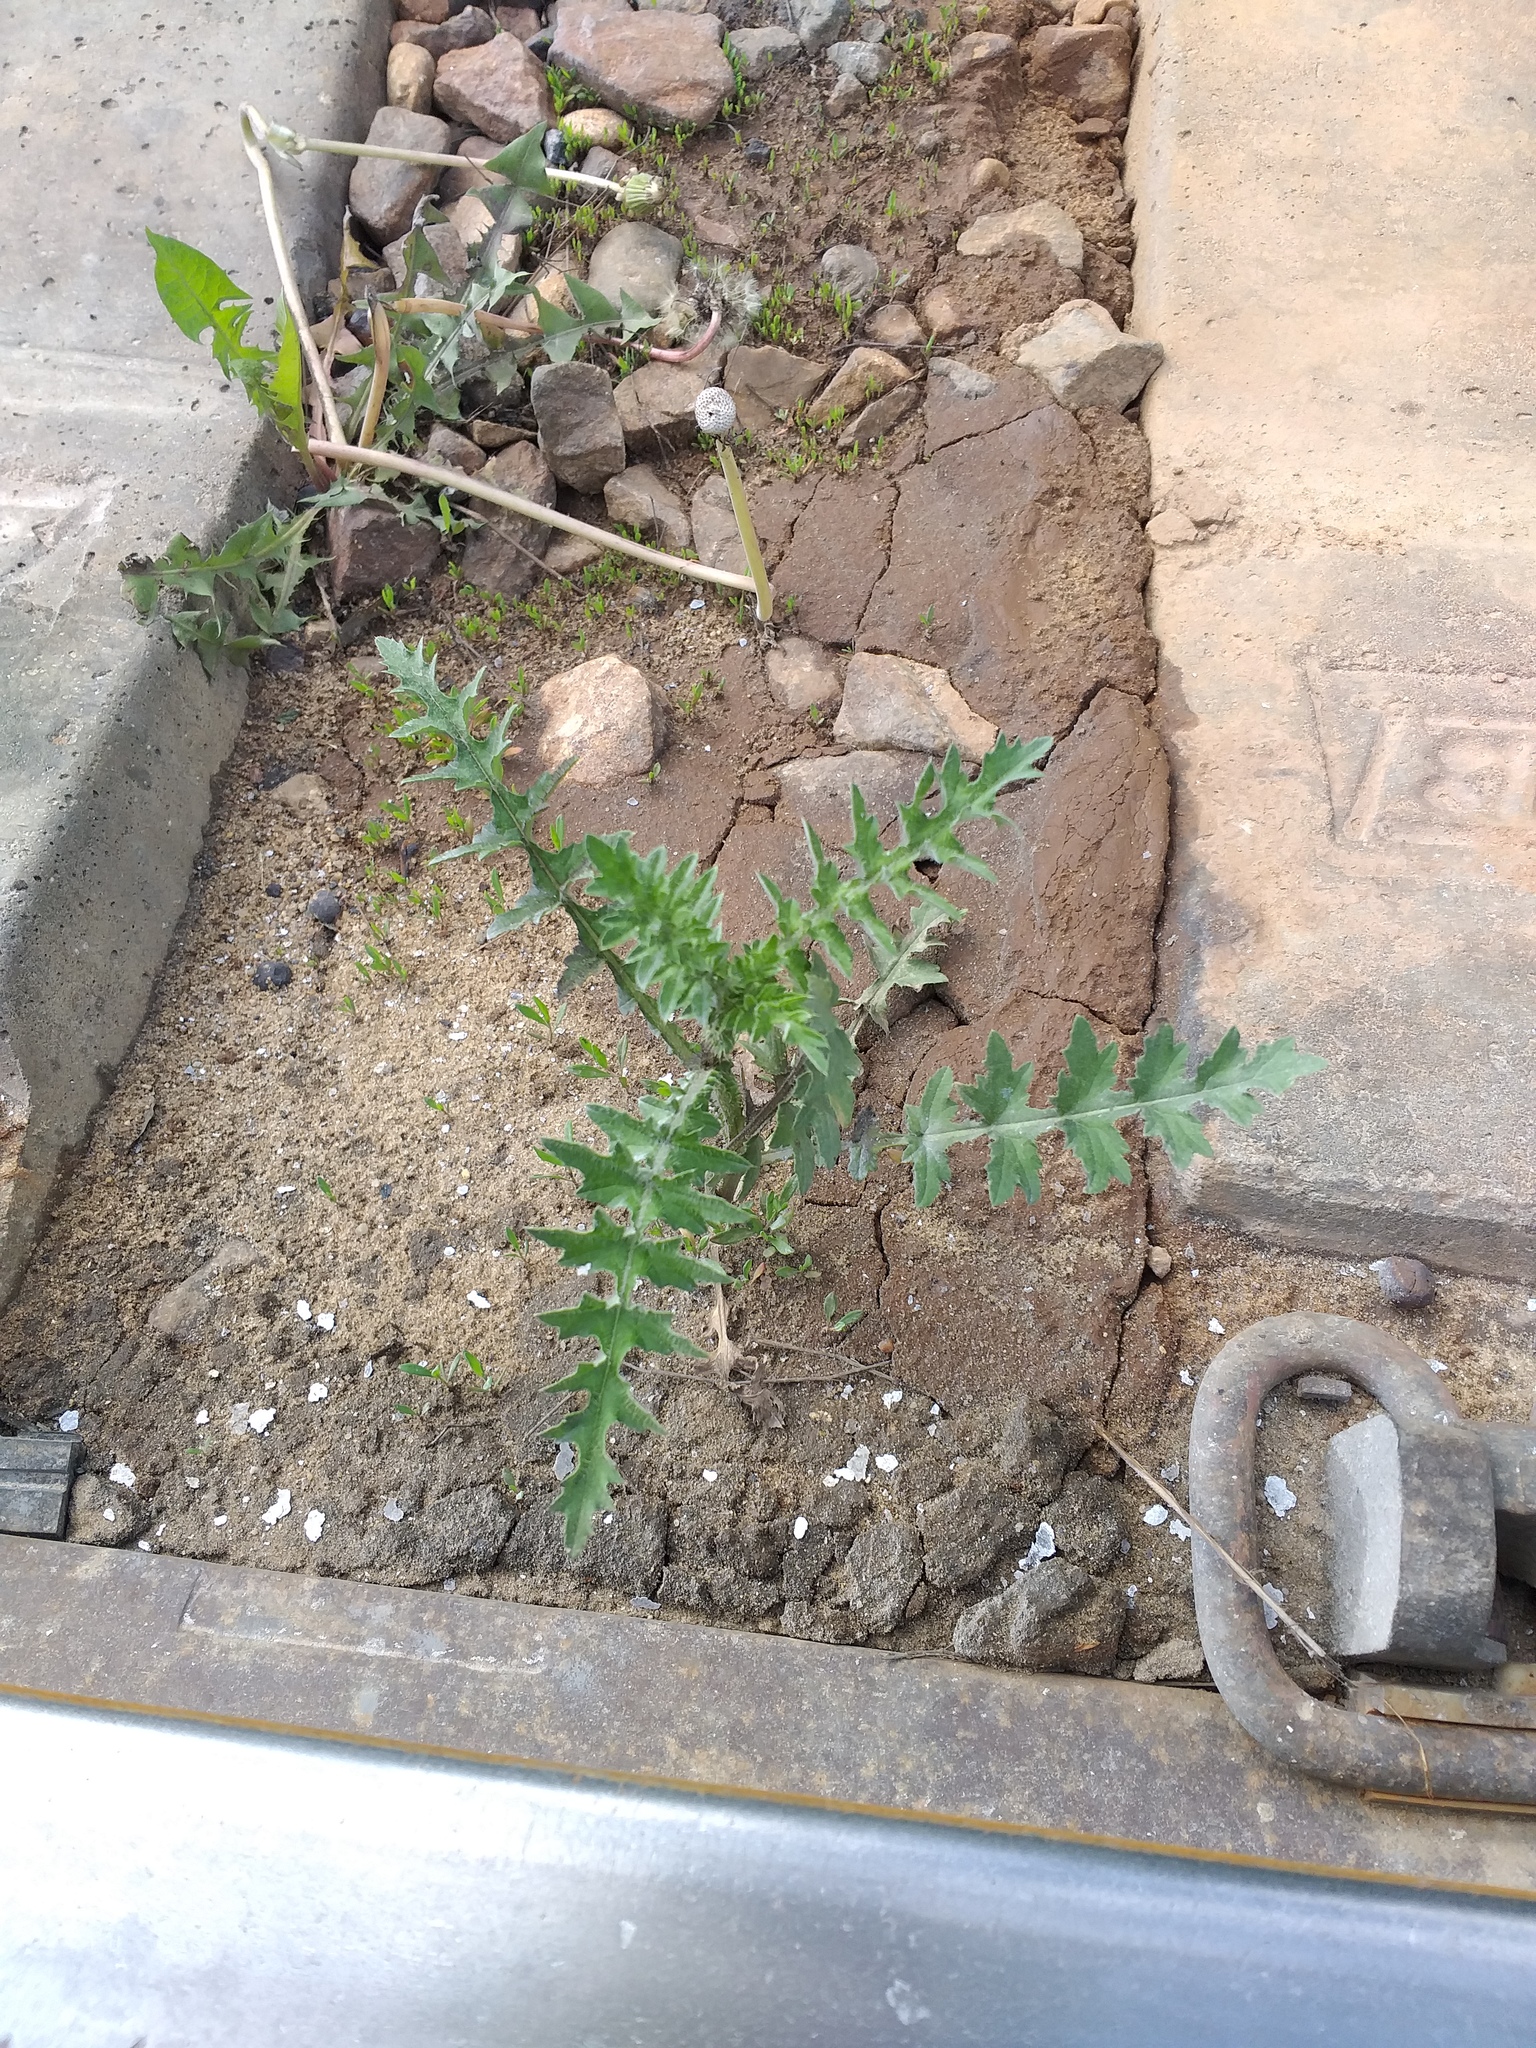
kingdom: Plantae
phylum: Tracheophyta
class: Magnoliopsida
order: Asterales
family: Asteraceae
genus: Carduus
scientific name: Carduus acanthoides
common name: Plumeless thistle
